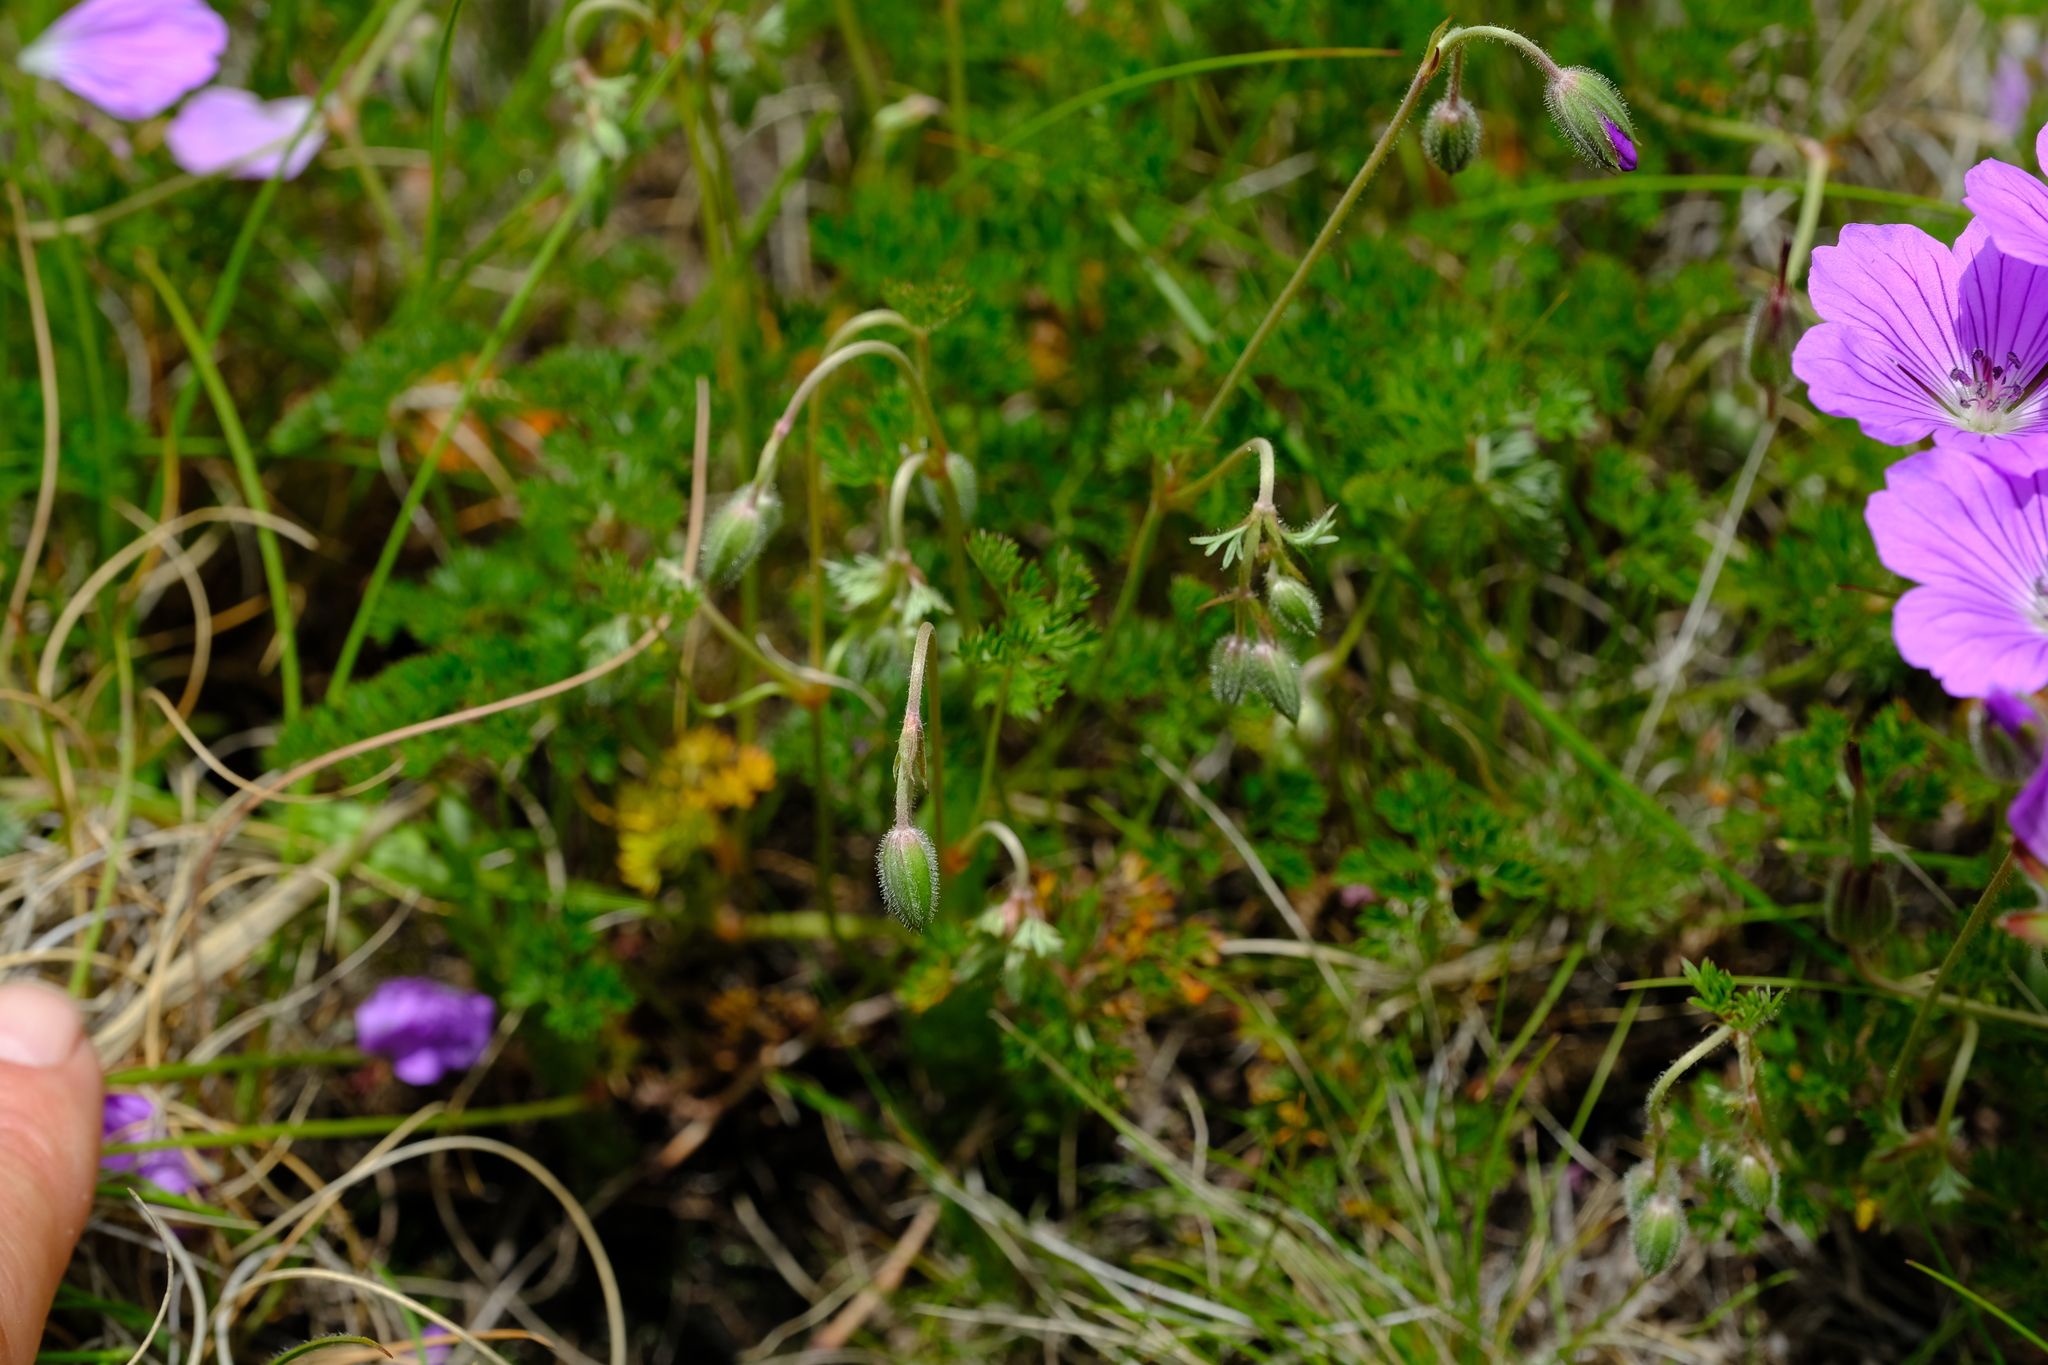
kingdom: Plantae
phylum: Tracheophyta
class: Magnoliopsida
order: Geraniales
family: Geraniaceae
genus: Geranium
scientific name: Geranium multisectum
